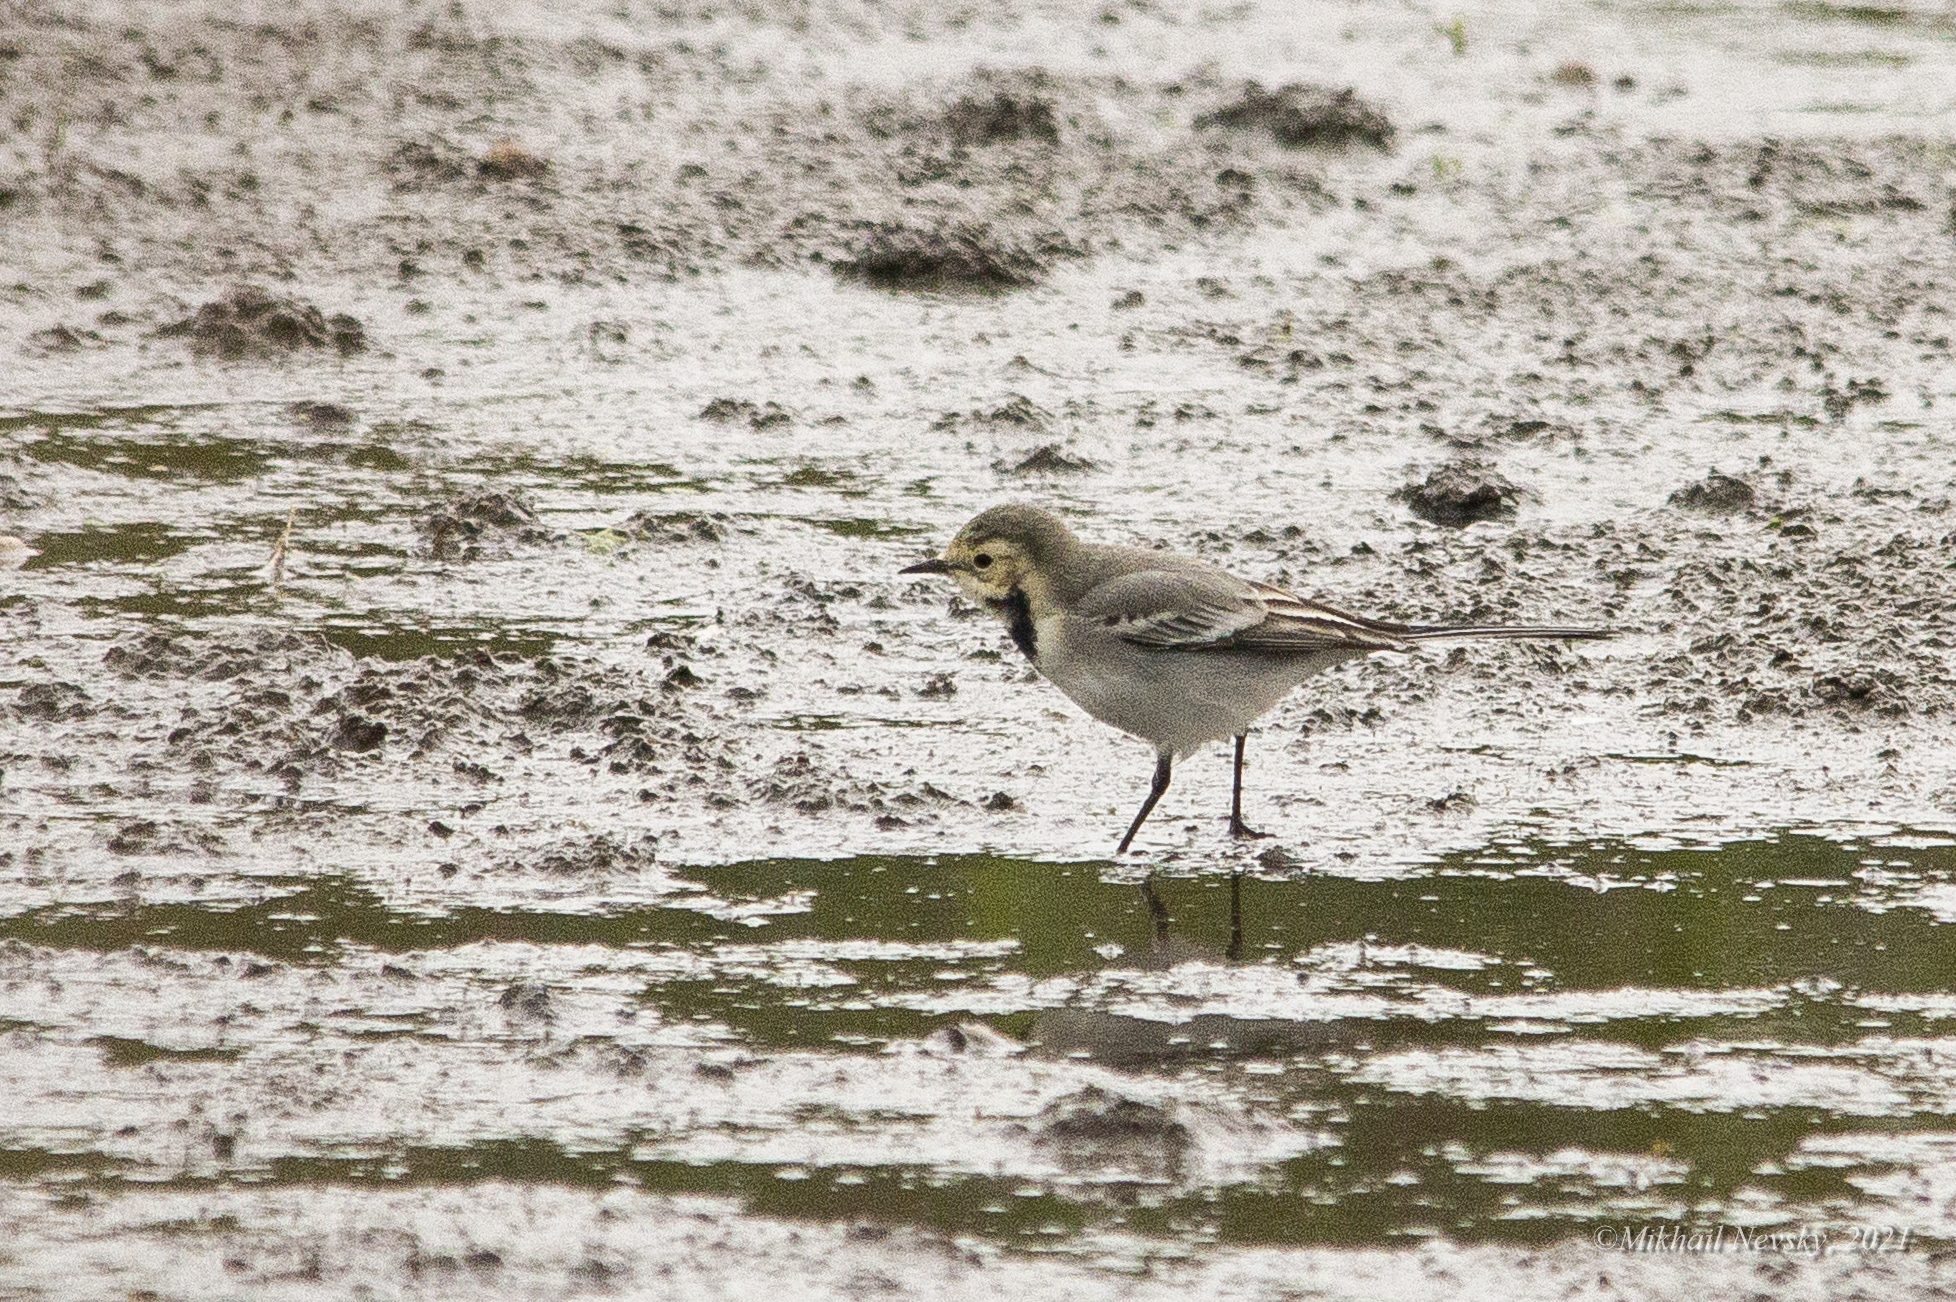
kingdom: Animalia
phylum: Chordata
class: Aves
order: Passeriformes
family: Motacillidae
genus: Motacilla
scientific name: Motacilla alba
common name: White wagtail
